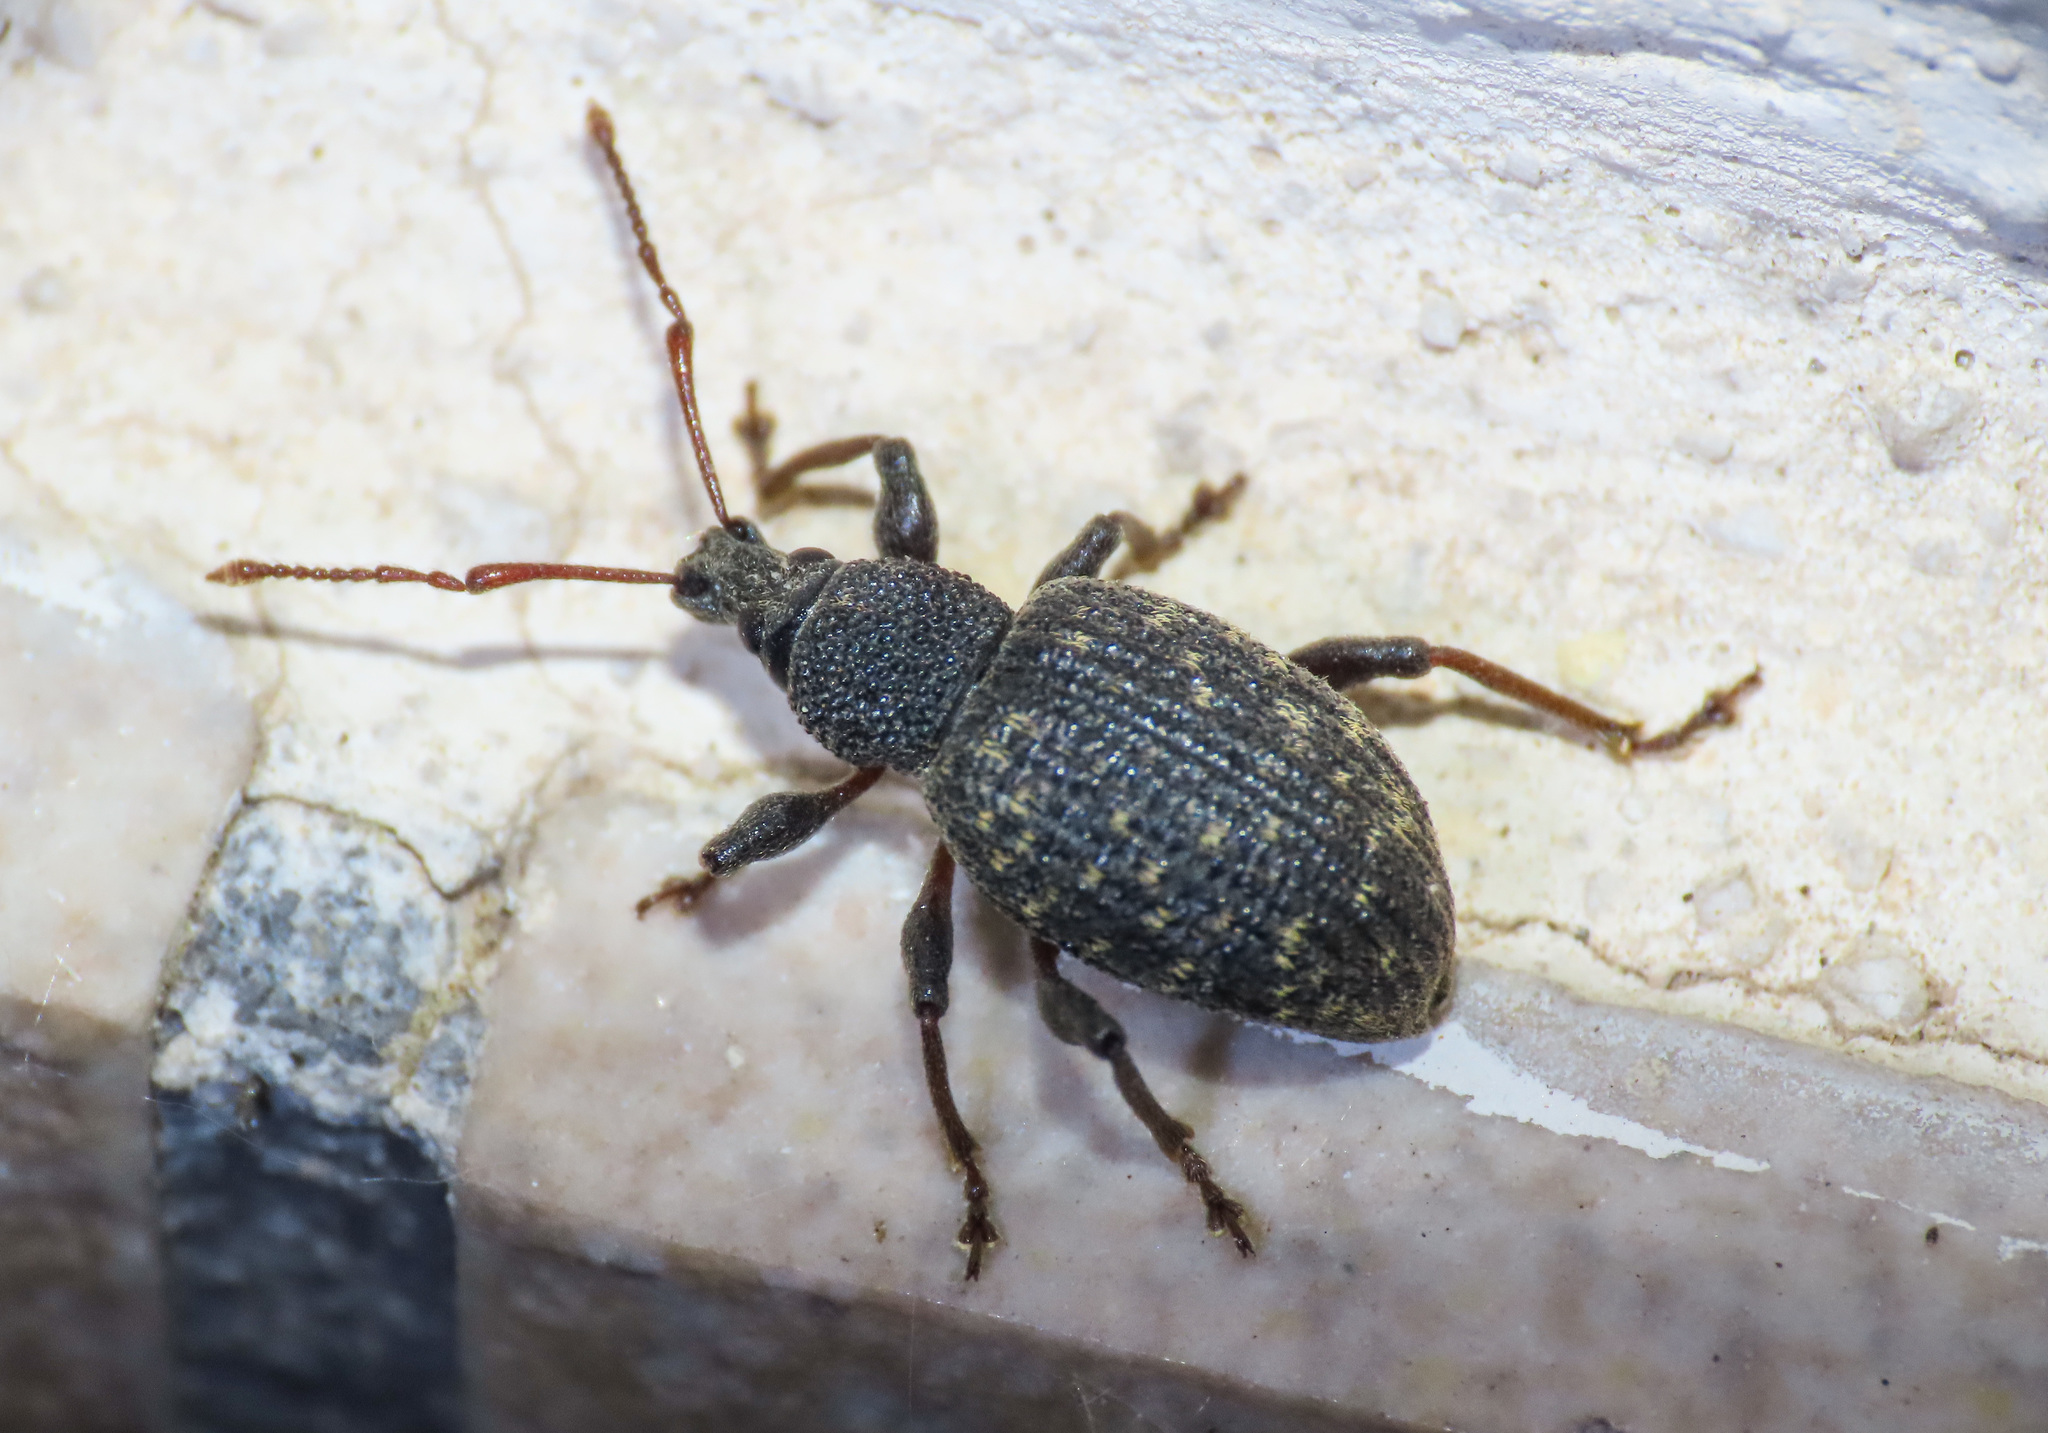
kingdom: Animalia
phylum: Arthropoda
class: Insecta
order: Coleoptera
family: Curculionidae
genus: Otiorhynchus
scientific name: Otiorhynchus sulcatus
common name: Black vine weevil
